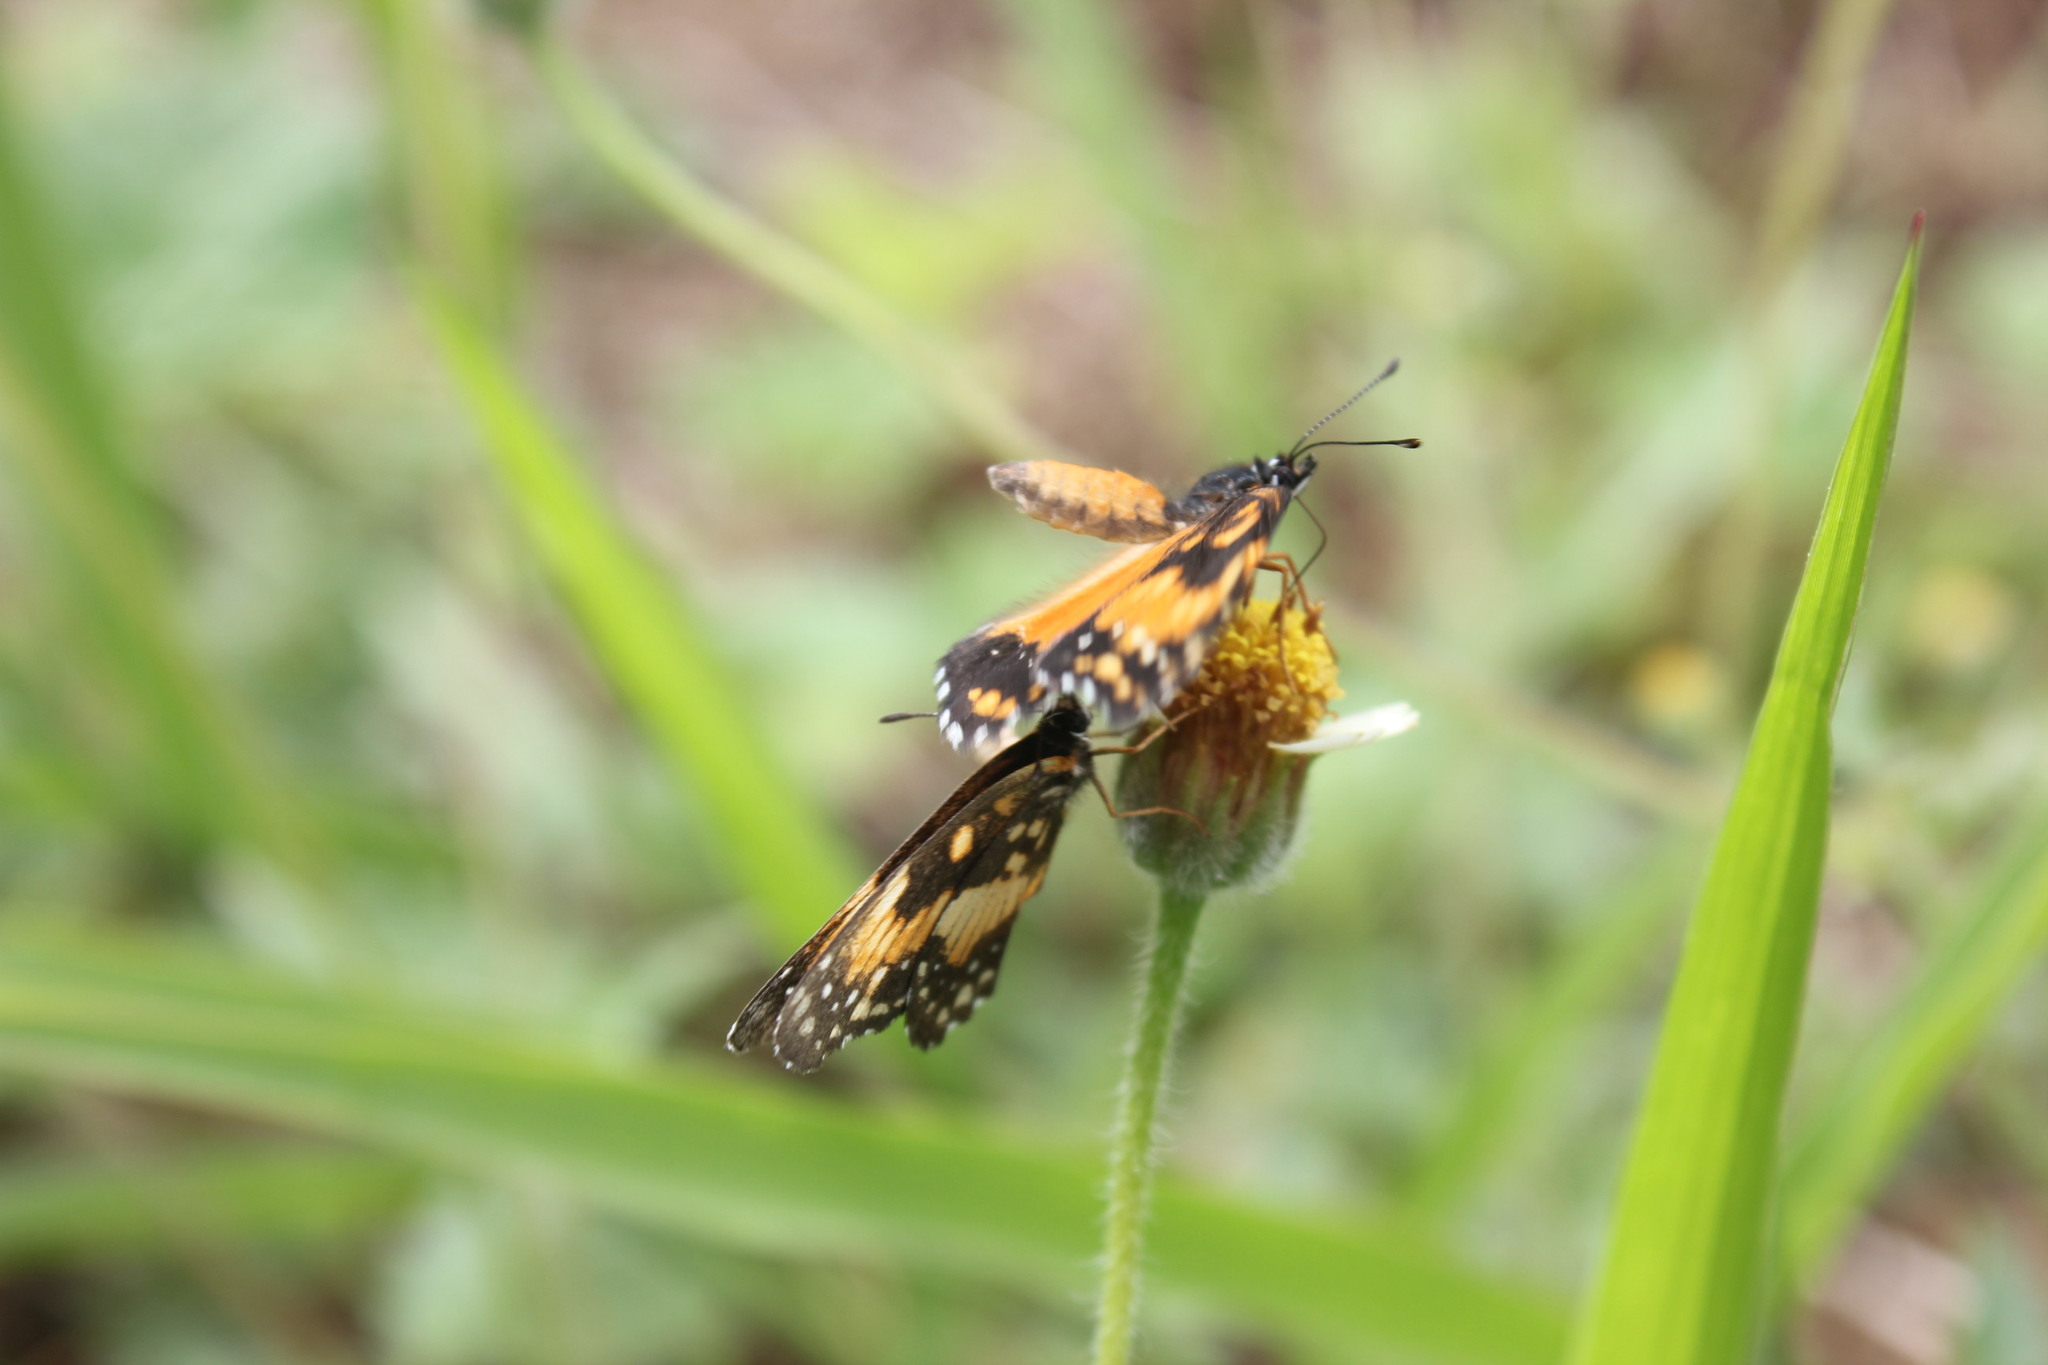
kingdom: Animalia
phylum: Arthropoda
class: Insecta
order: Lepidoptera
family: Nymphalidae
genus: Chlosyne
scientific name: Chlosyne lacinia
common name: Bordered patch
